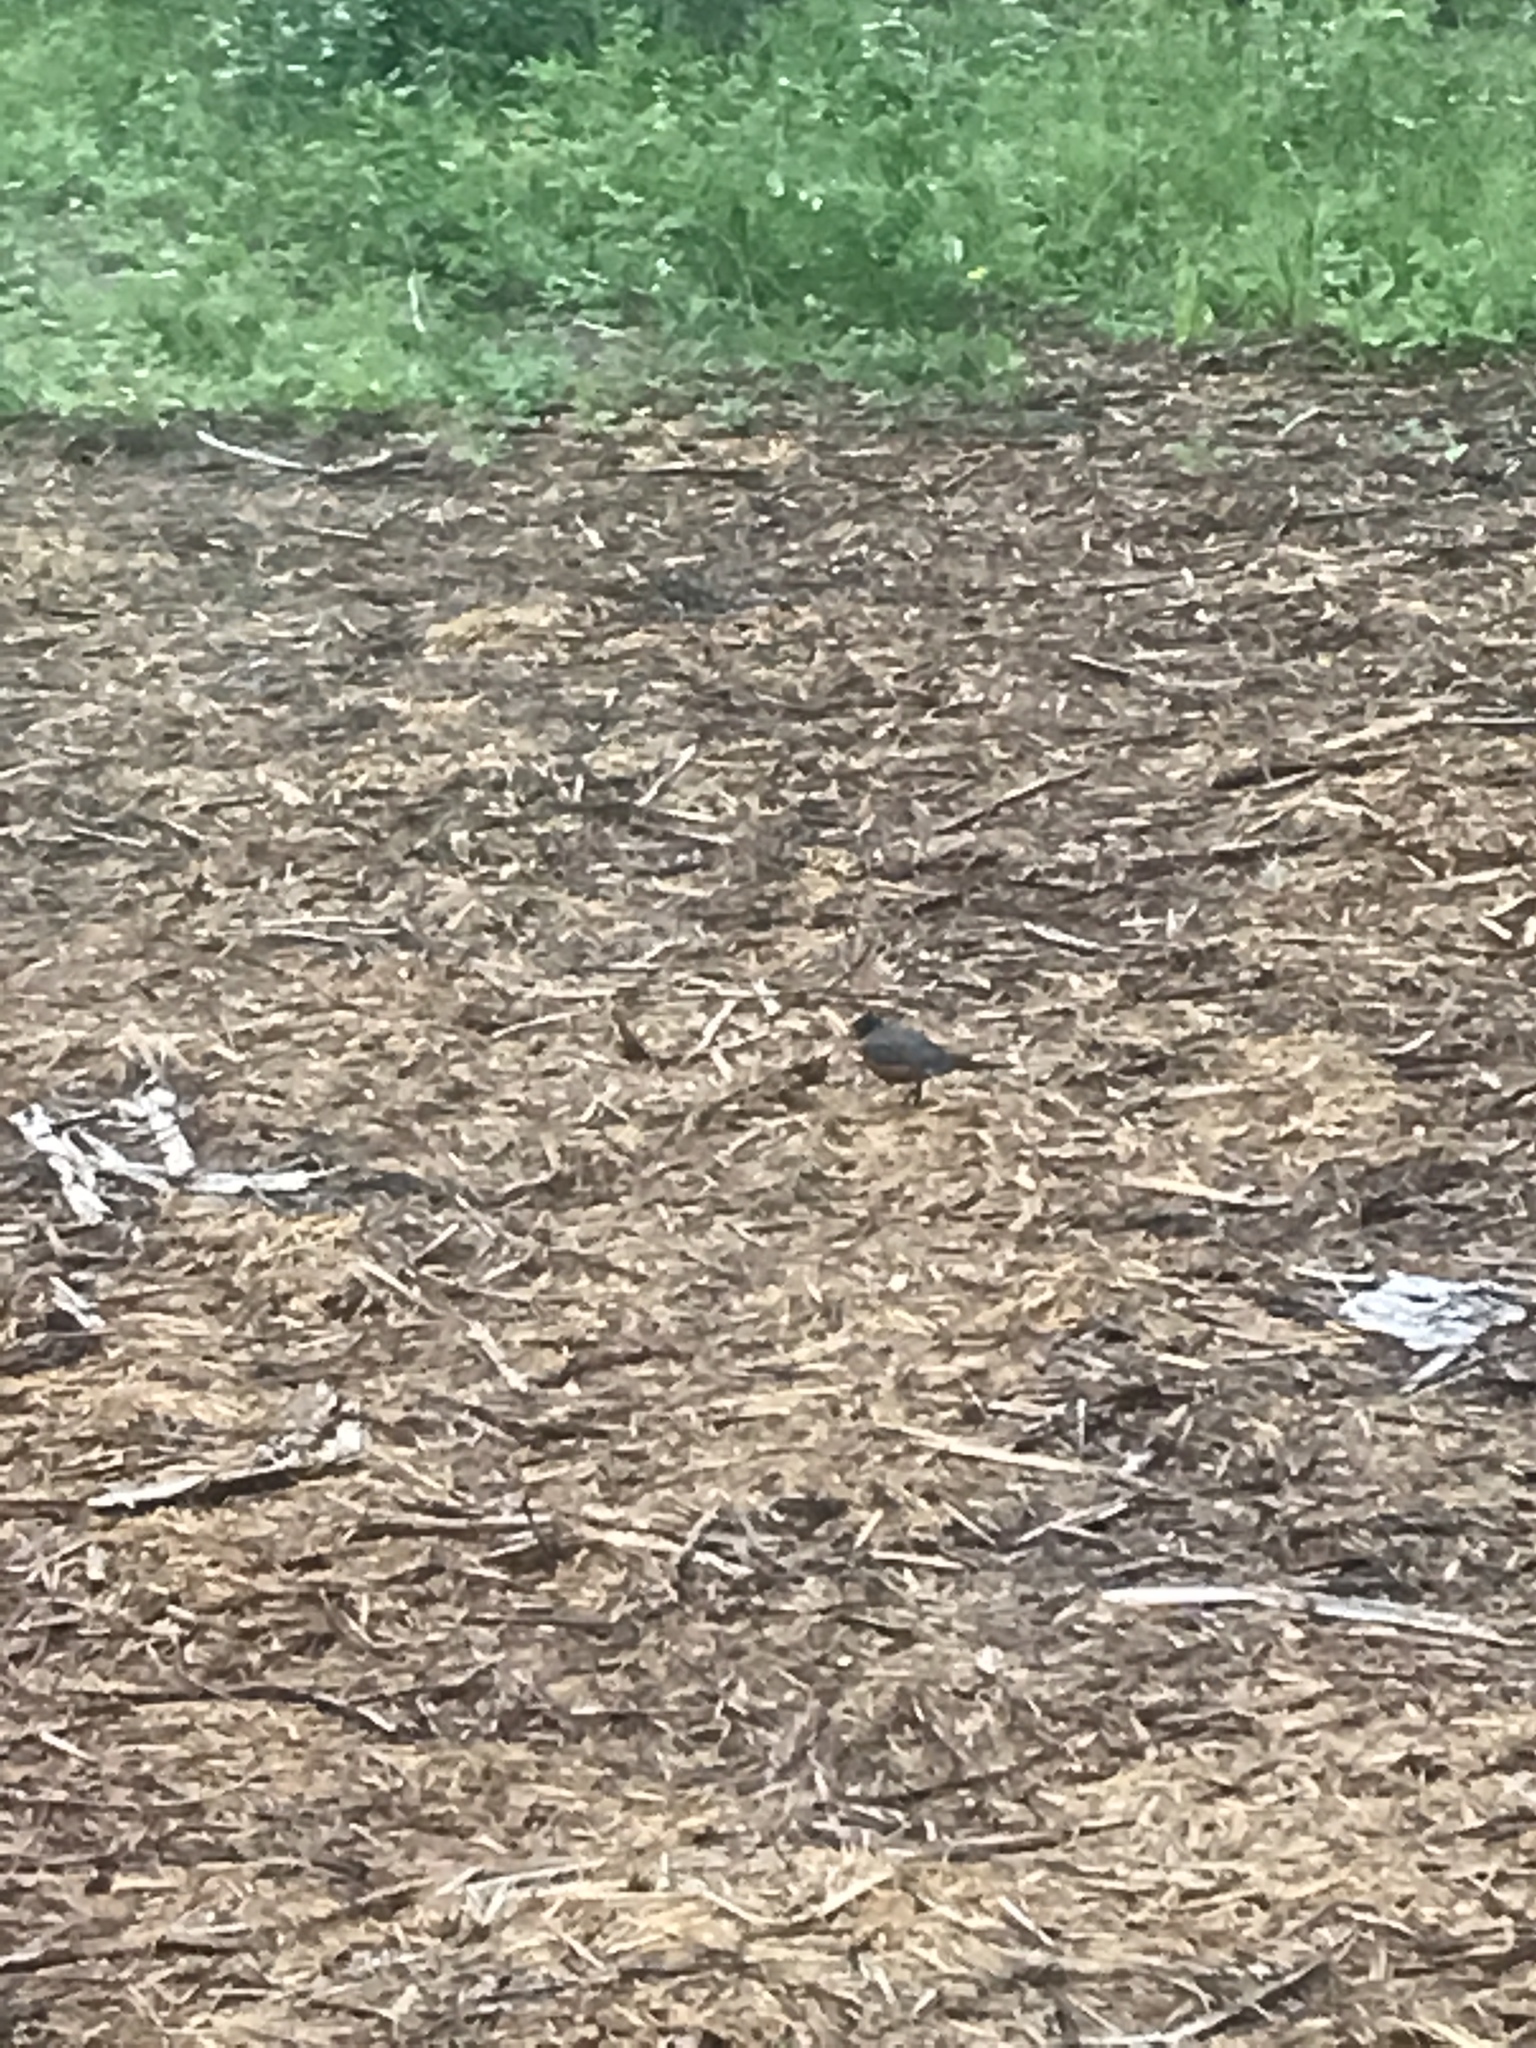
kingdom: Animalia
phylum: Chordata
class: Aves
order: Passeriformes
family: Turdidae
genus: Turdus
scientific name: Turdus migratorius
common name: American robin
